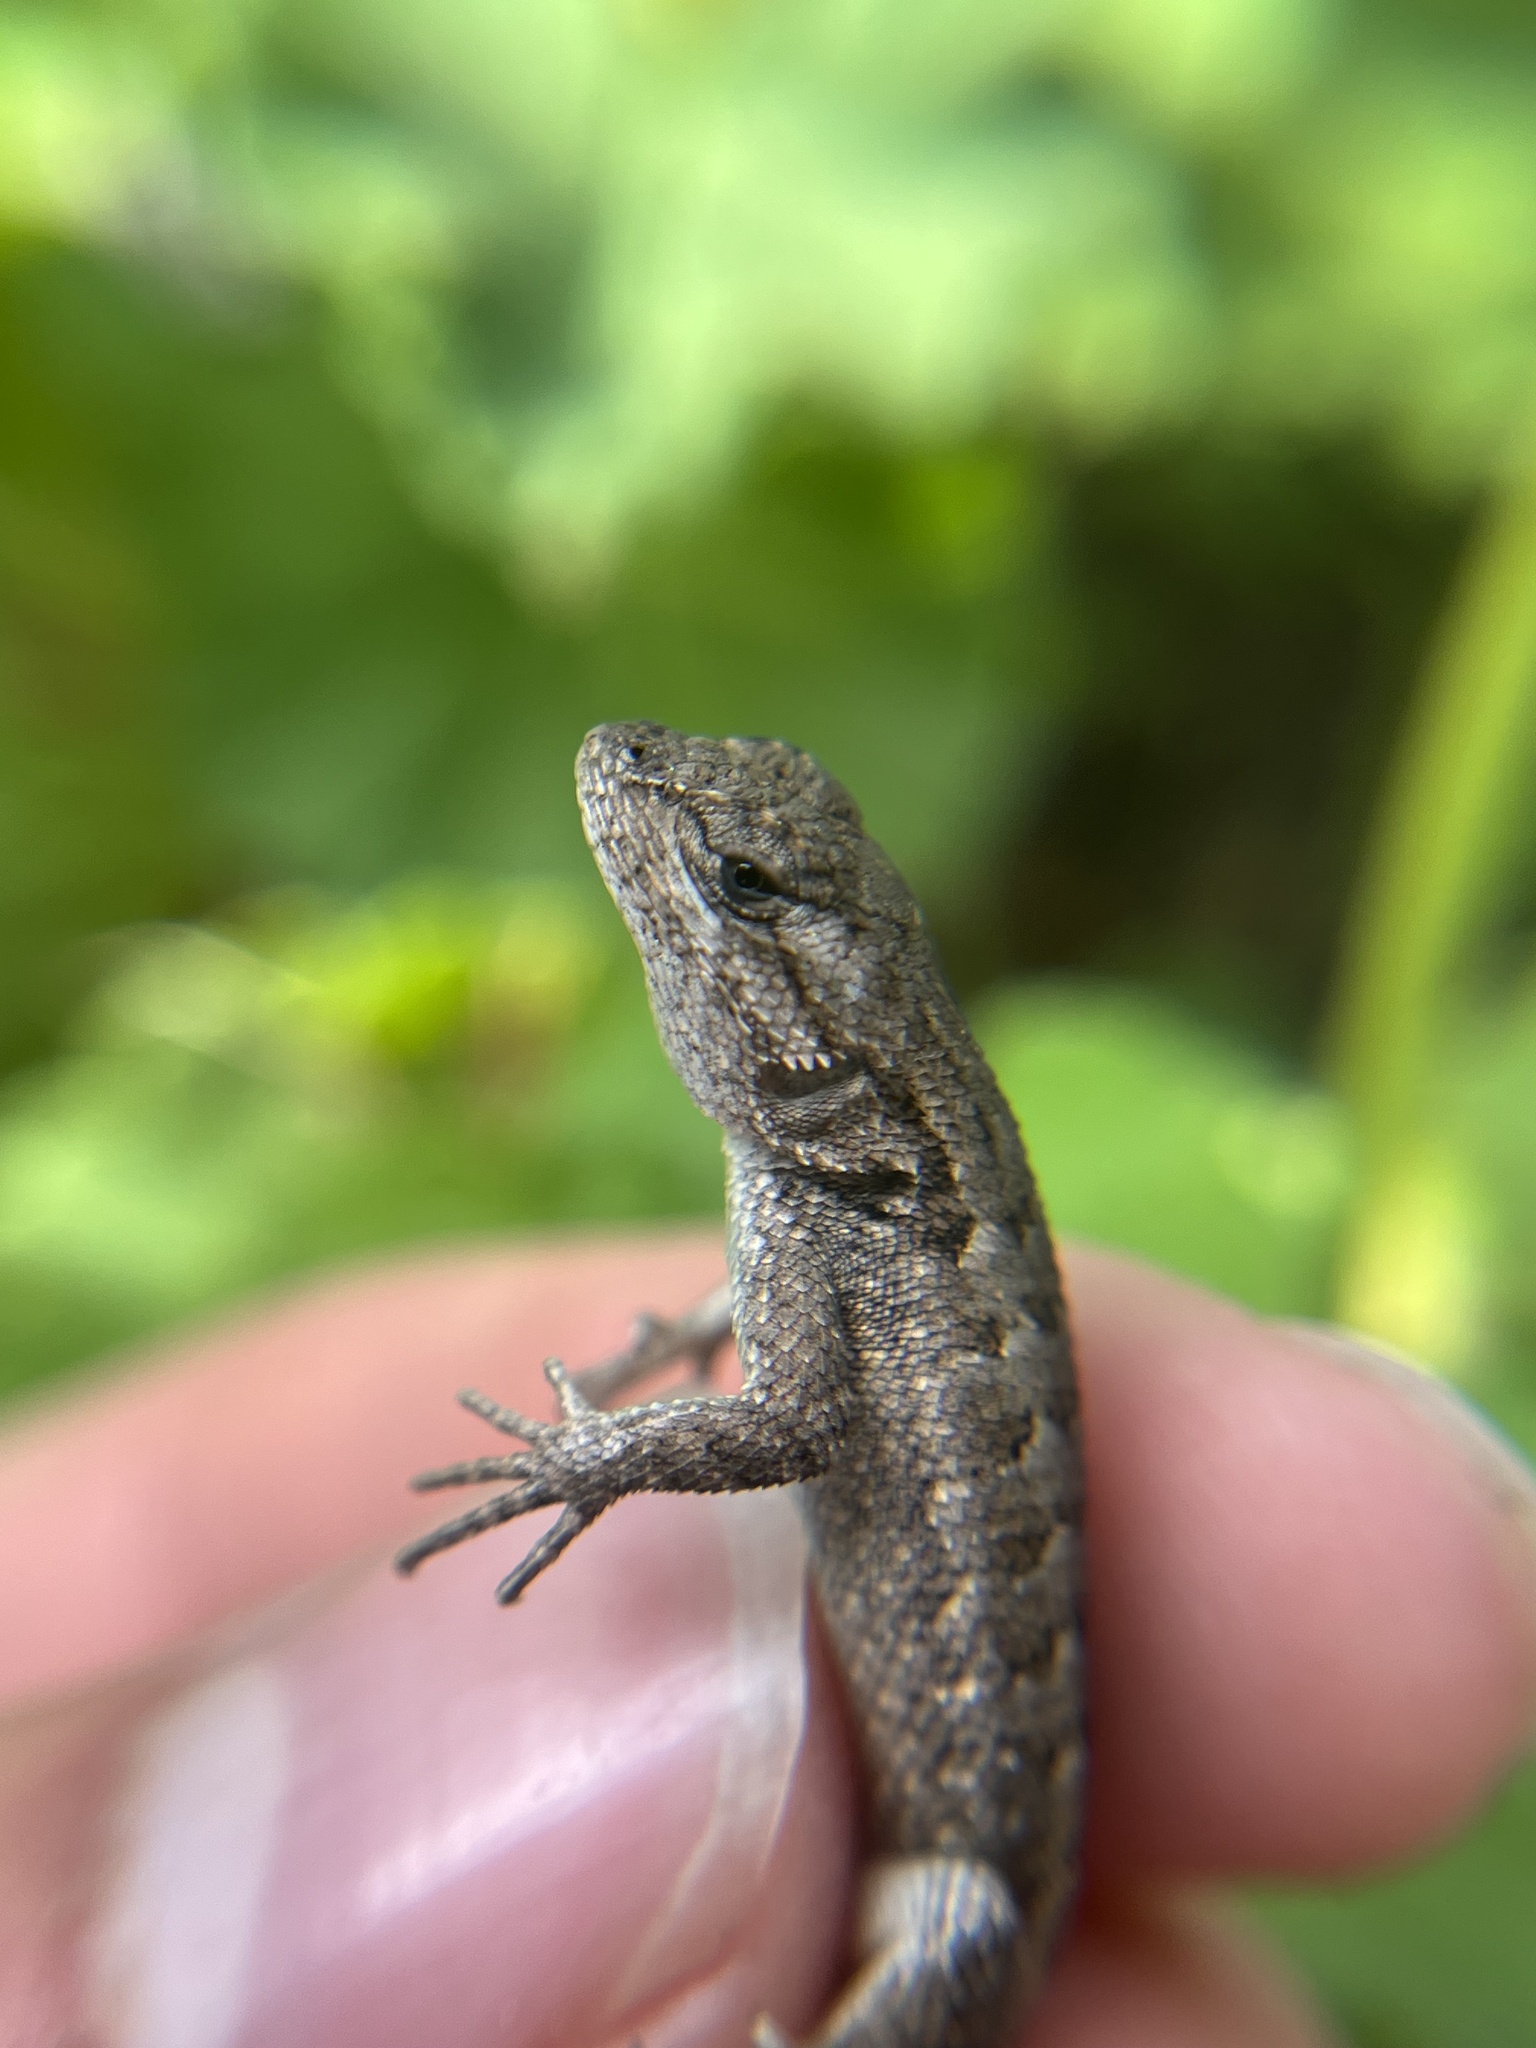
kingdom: Animalia
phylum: Chordata
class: Squamata
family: Phrynosomatidae
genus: Sceloporus
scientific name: Sceloporus occidentalis
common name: Western fence lizard
